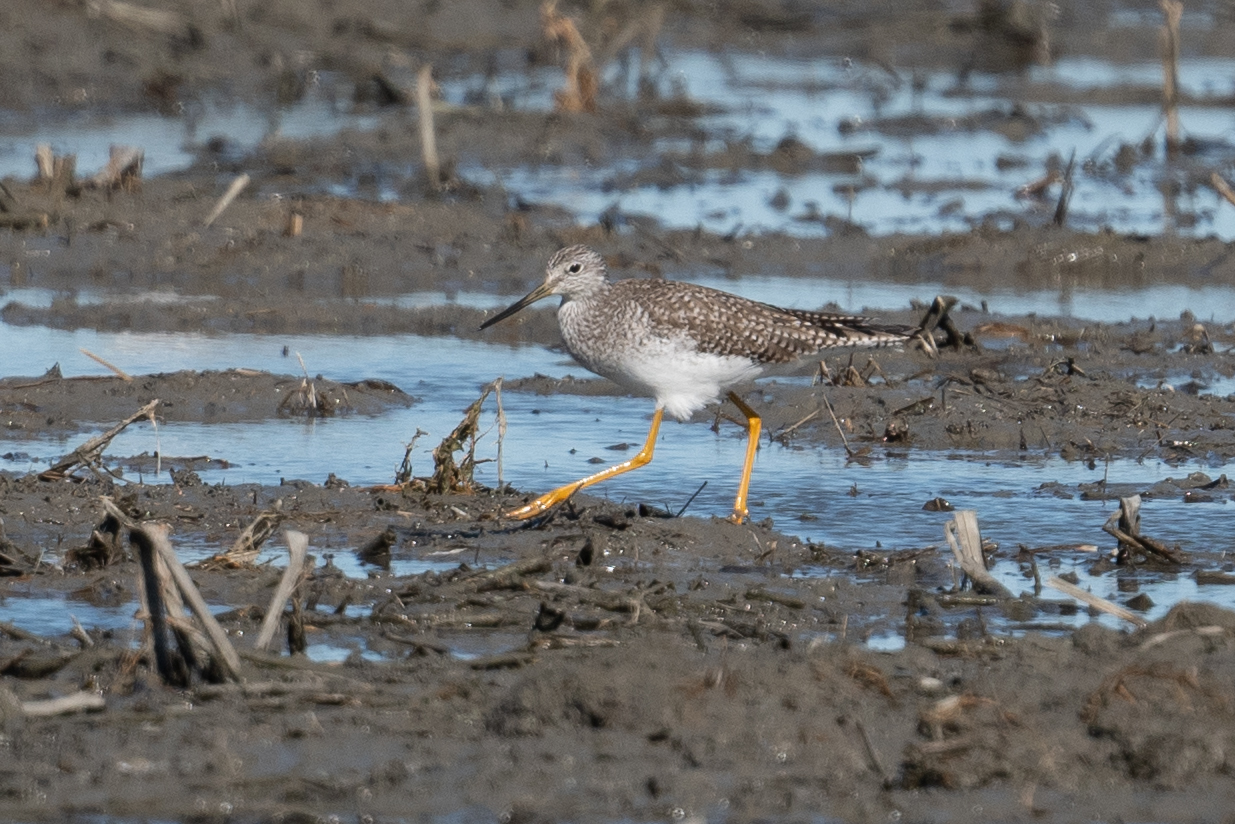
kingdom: Animalia
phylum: Chordata
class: Aves
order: Charadriiformes
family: Scolopacidae
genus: Tringa
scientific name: Tringa melanoleuca
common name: Greater yellowlegs
